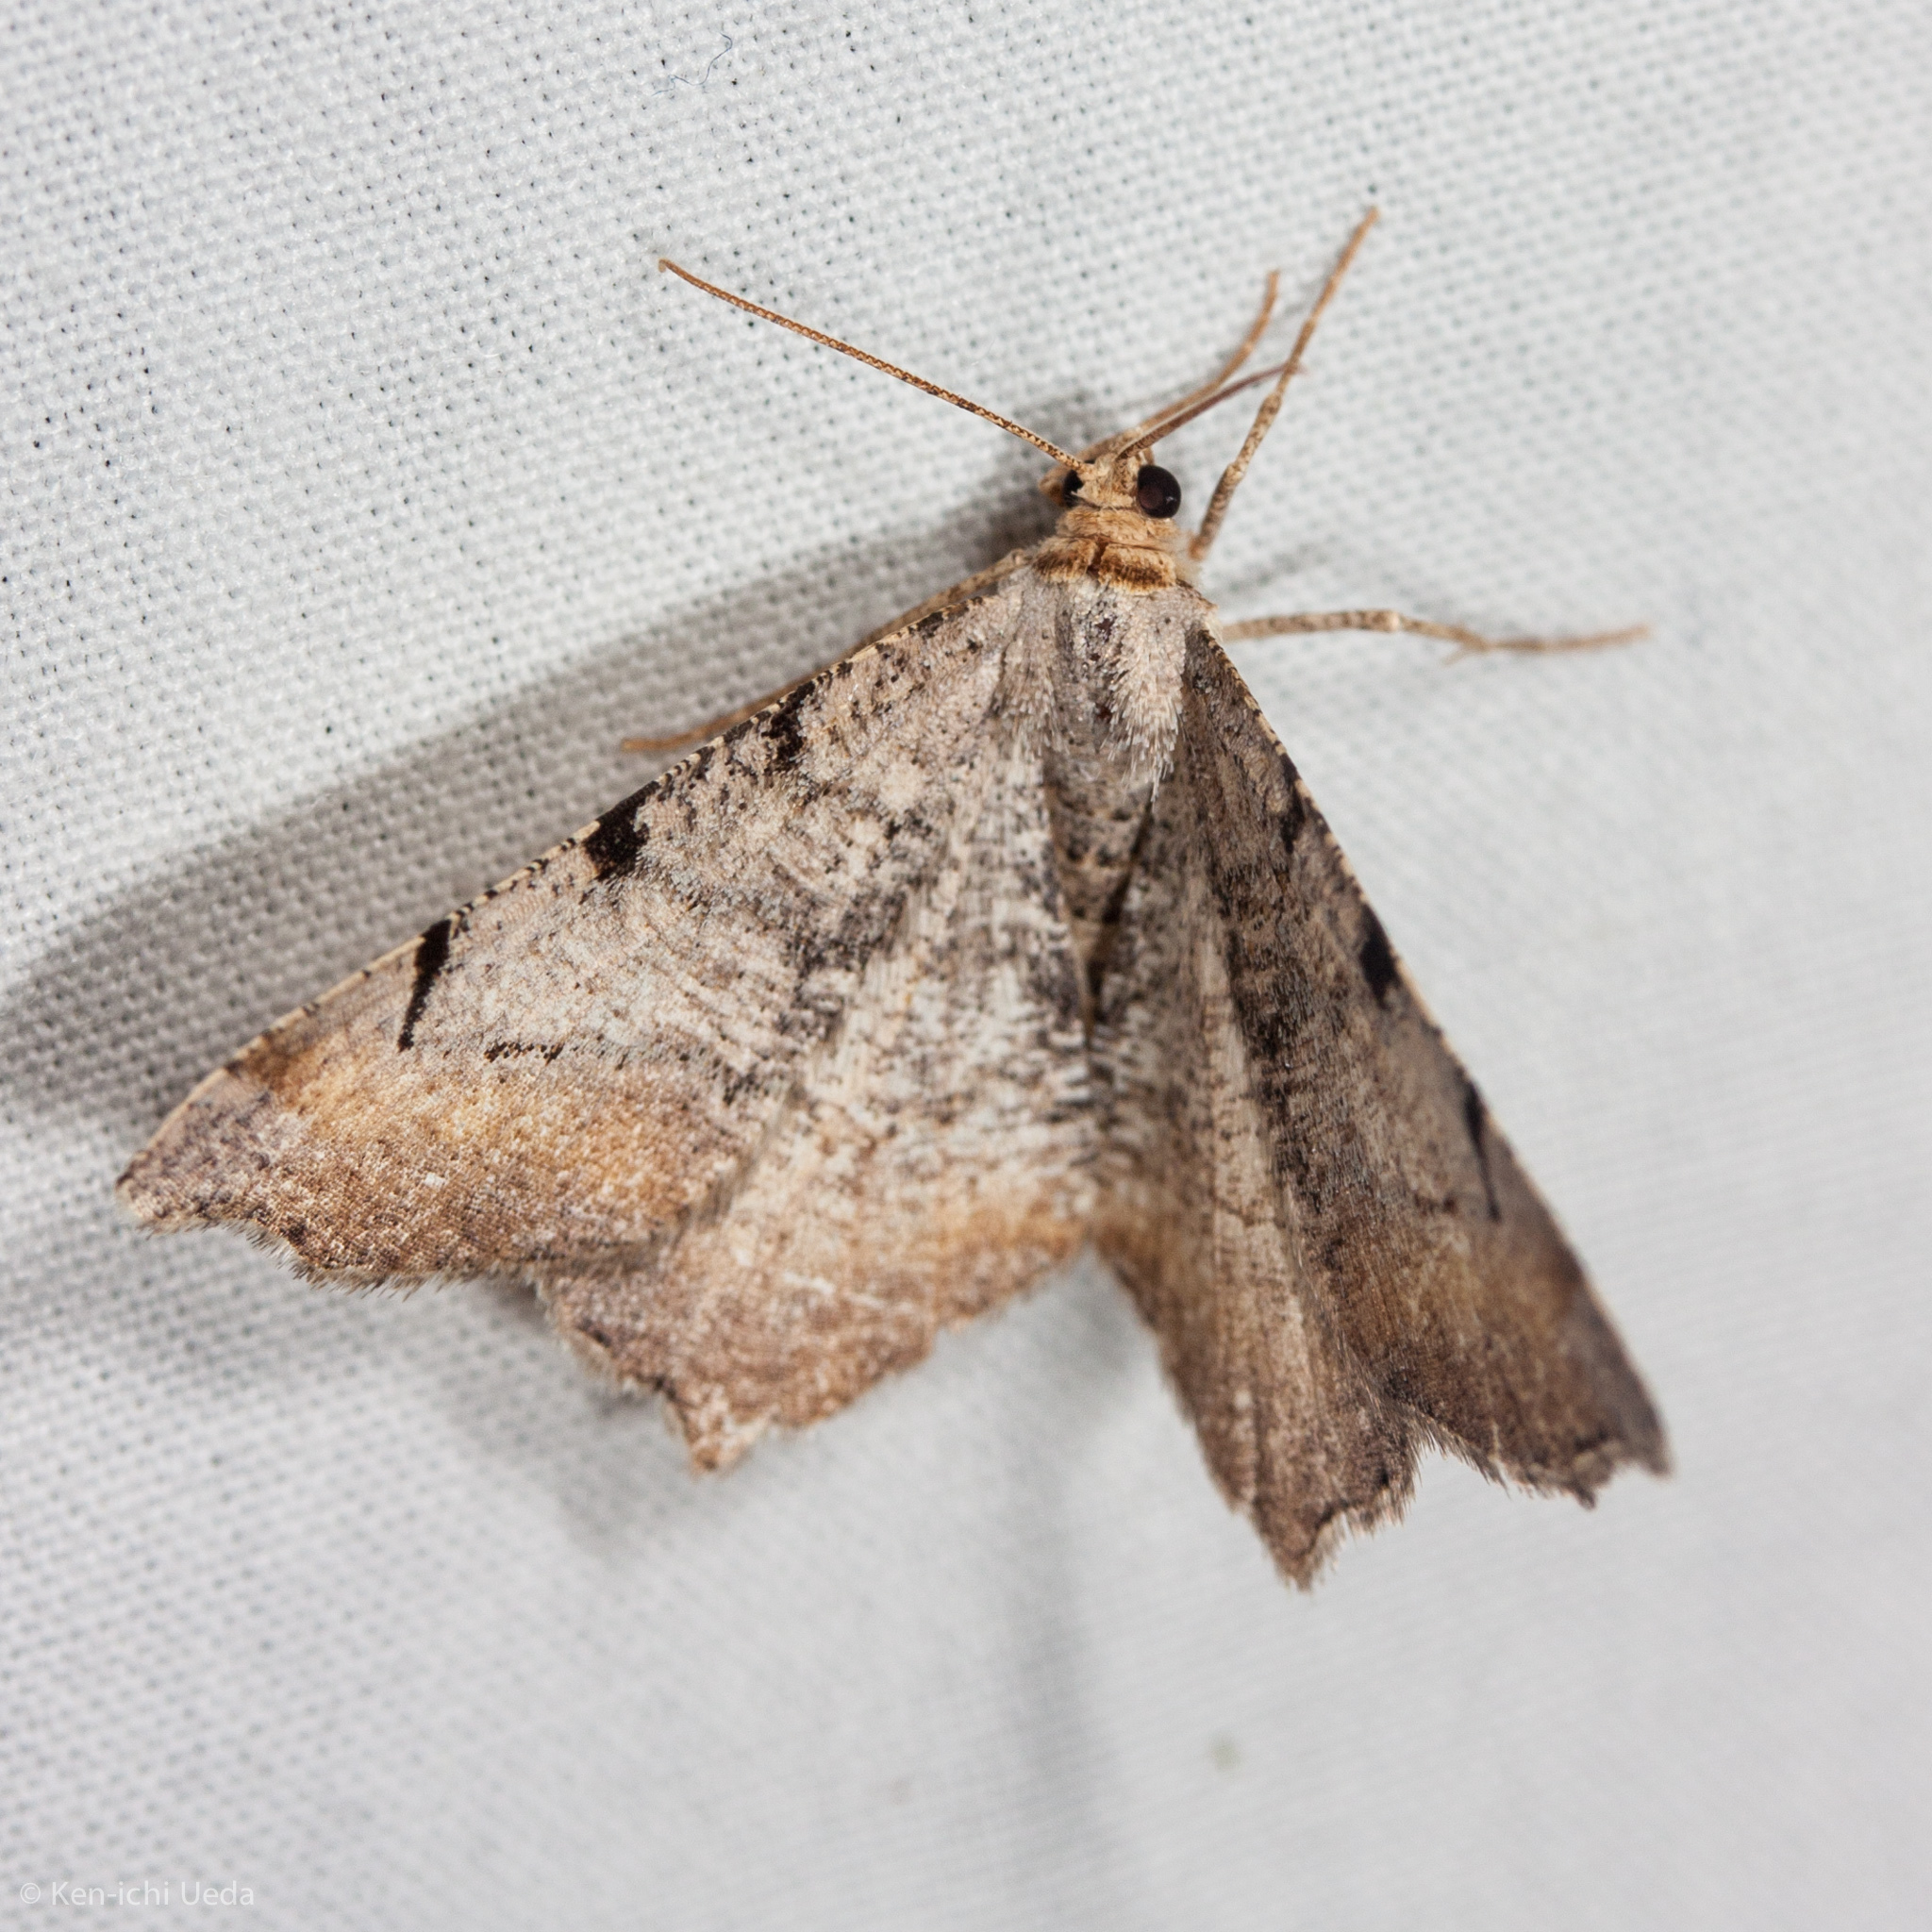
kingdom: Animalia
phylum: Arthropoda
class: Insecta
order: Lepidoptera
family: Geometridae
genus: Macaria
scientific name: Macaria adonis
